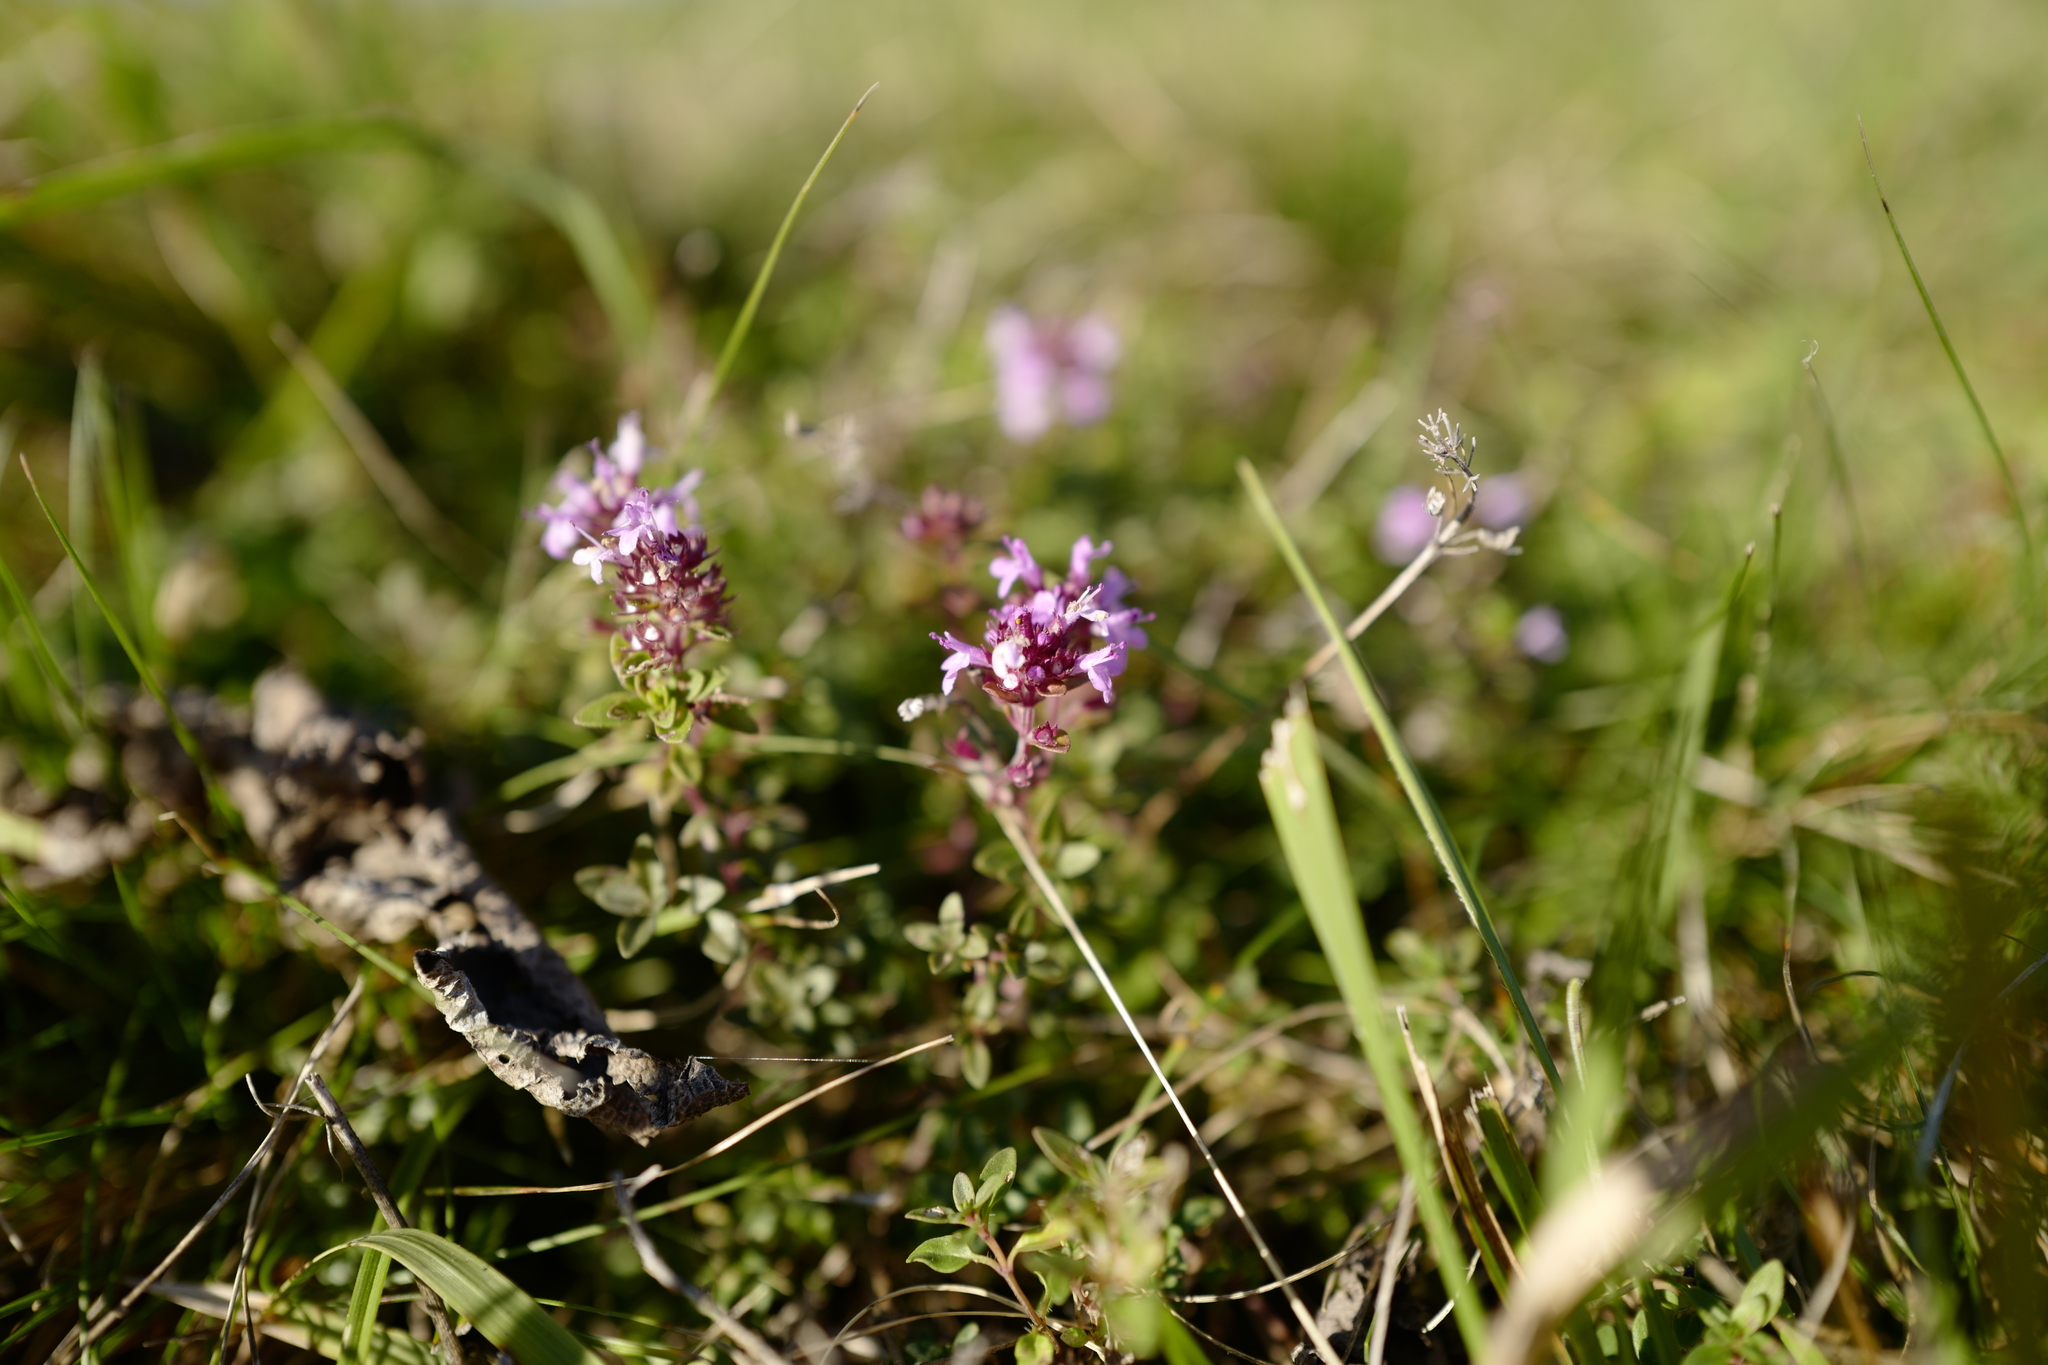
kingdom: Plantae
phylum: Tracheophyta
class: Magnoliopsida
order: Lamiales
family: Lamiaceae
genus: Thymus
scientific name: Thymus pulegioides
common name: Large thyme
